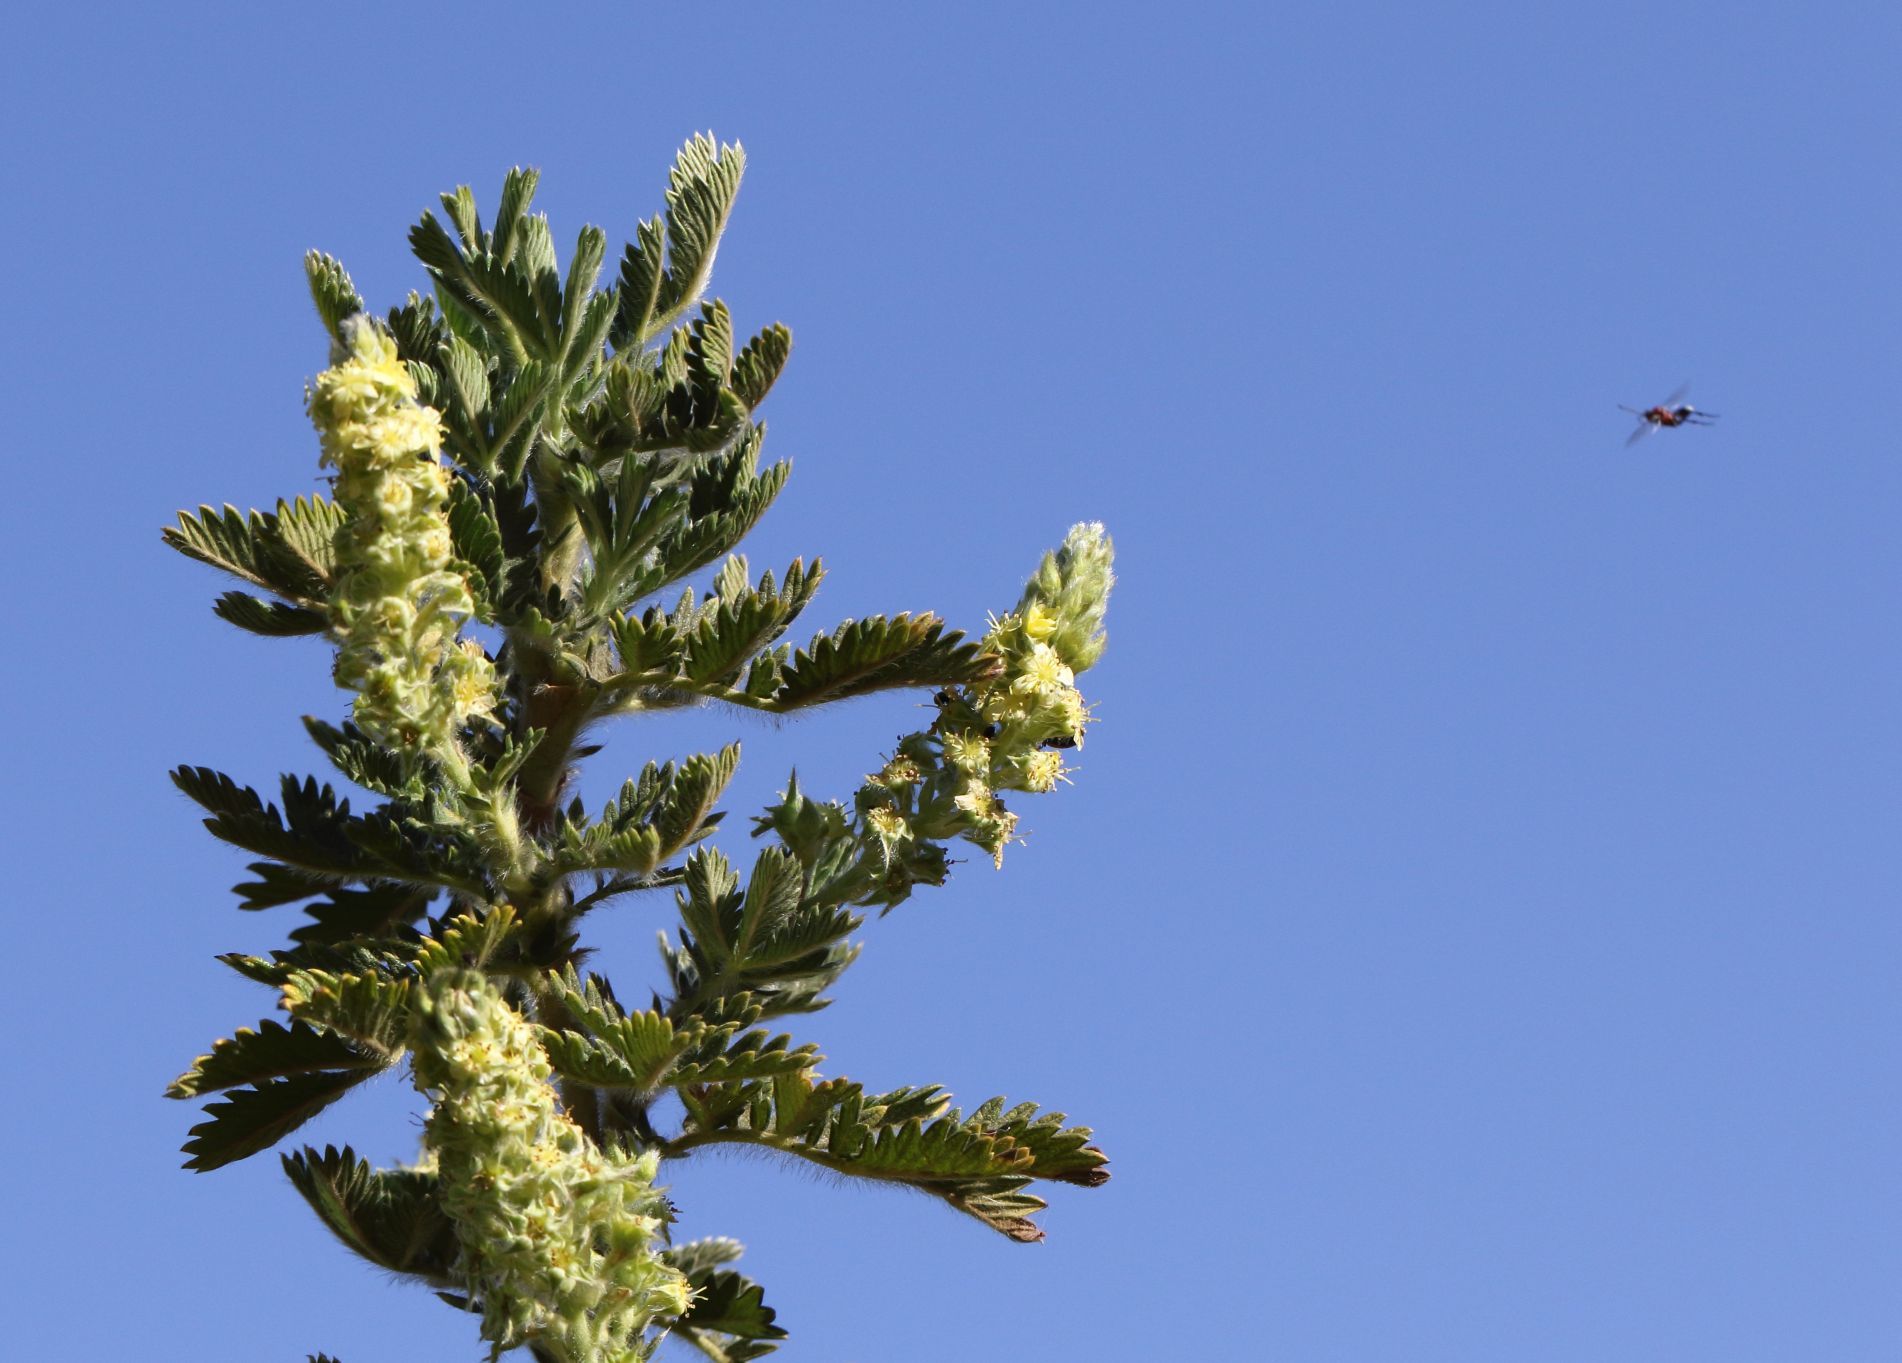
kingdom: Plantae
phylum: Tracheophyta
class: Magnoliopsida
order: Rosales
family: Rosaceae
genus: Leucosidea
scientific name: Leucosidea sericea
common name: Oldwood
